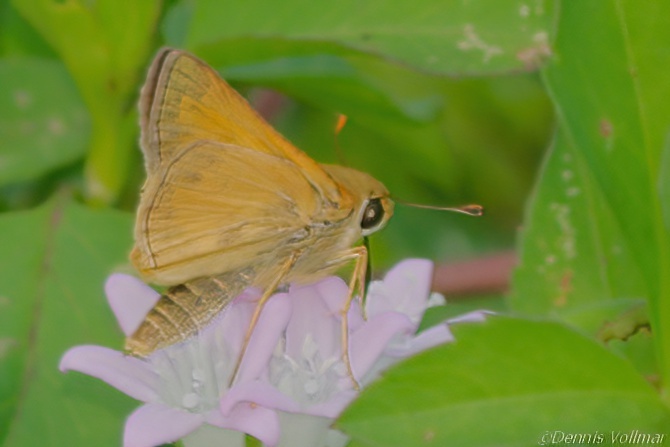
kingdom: Animalia
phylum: Arthropoda
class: Insecta
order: Lepidoptera
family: Hesperiidae
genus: Atalopedes
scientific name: Atalopedes
